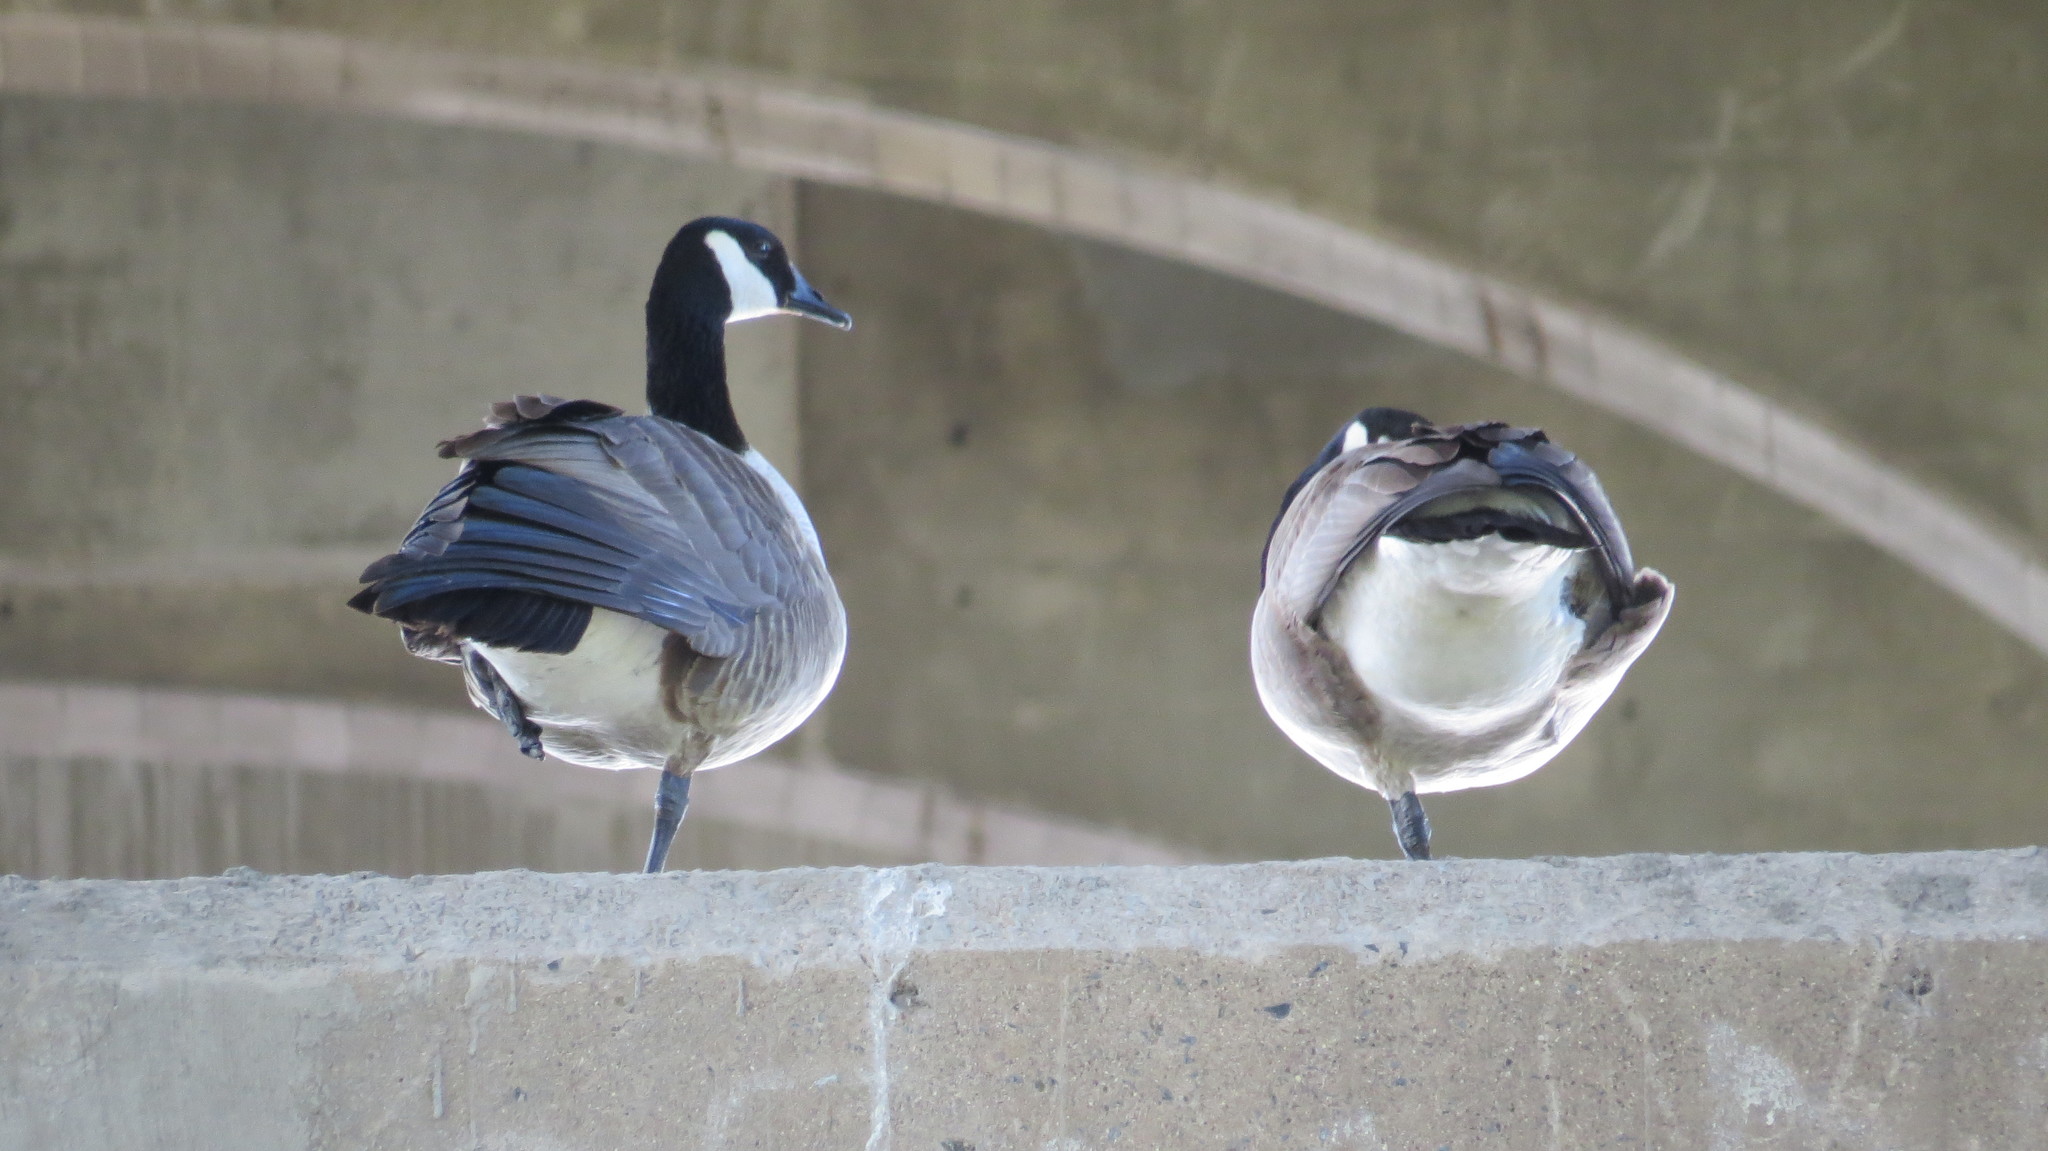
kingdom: Animalia
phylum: Chordata
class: Aves
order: Anseriformes
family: Anatidae
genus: Branta
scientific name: Branta canadensis
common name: Canada goose
